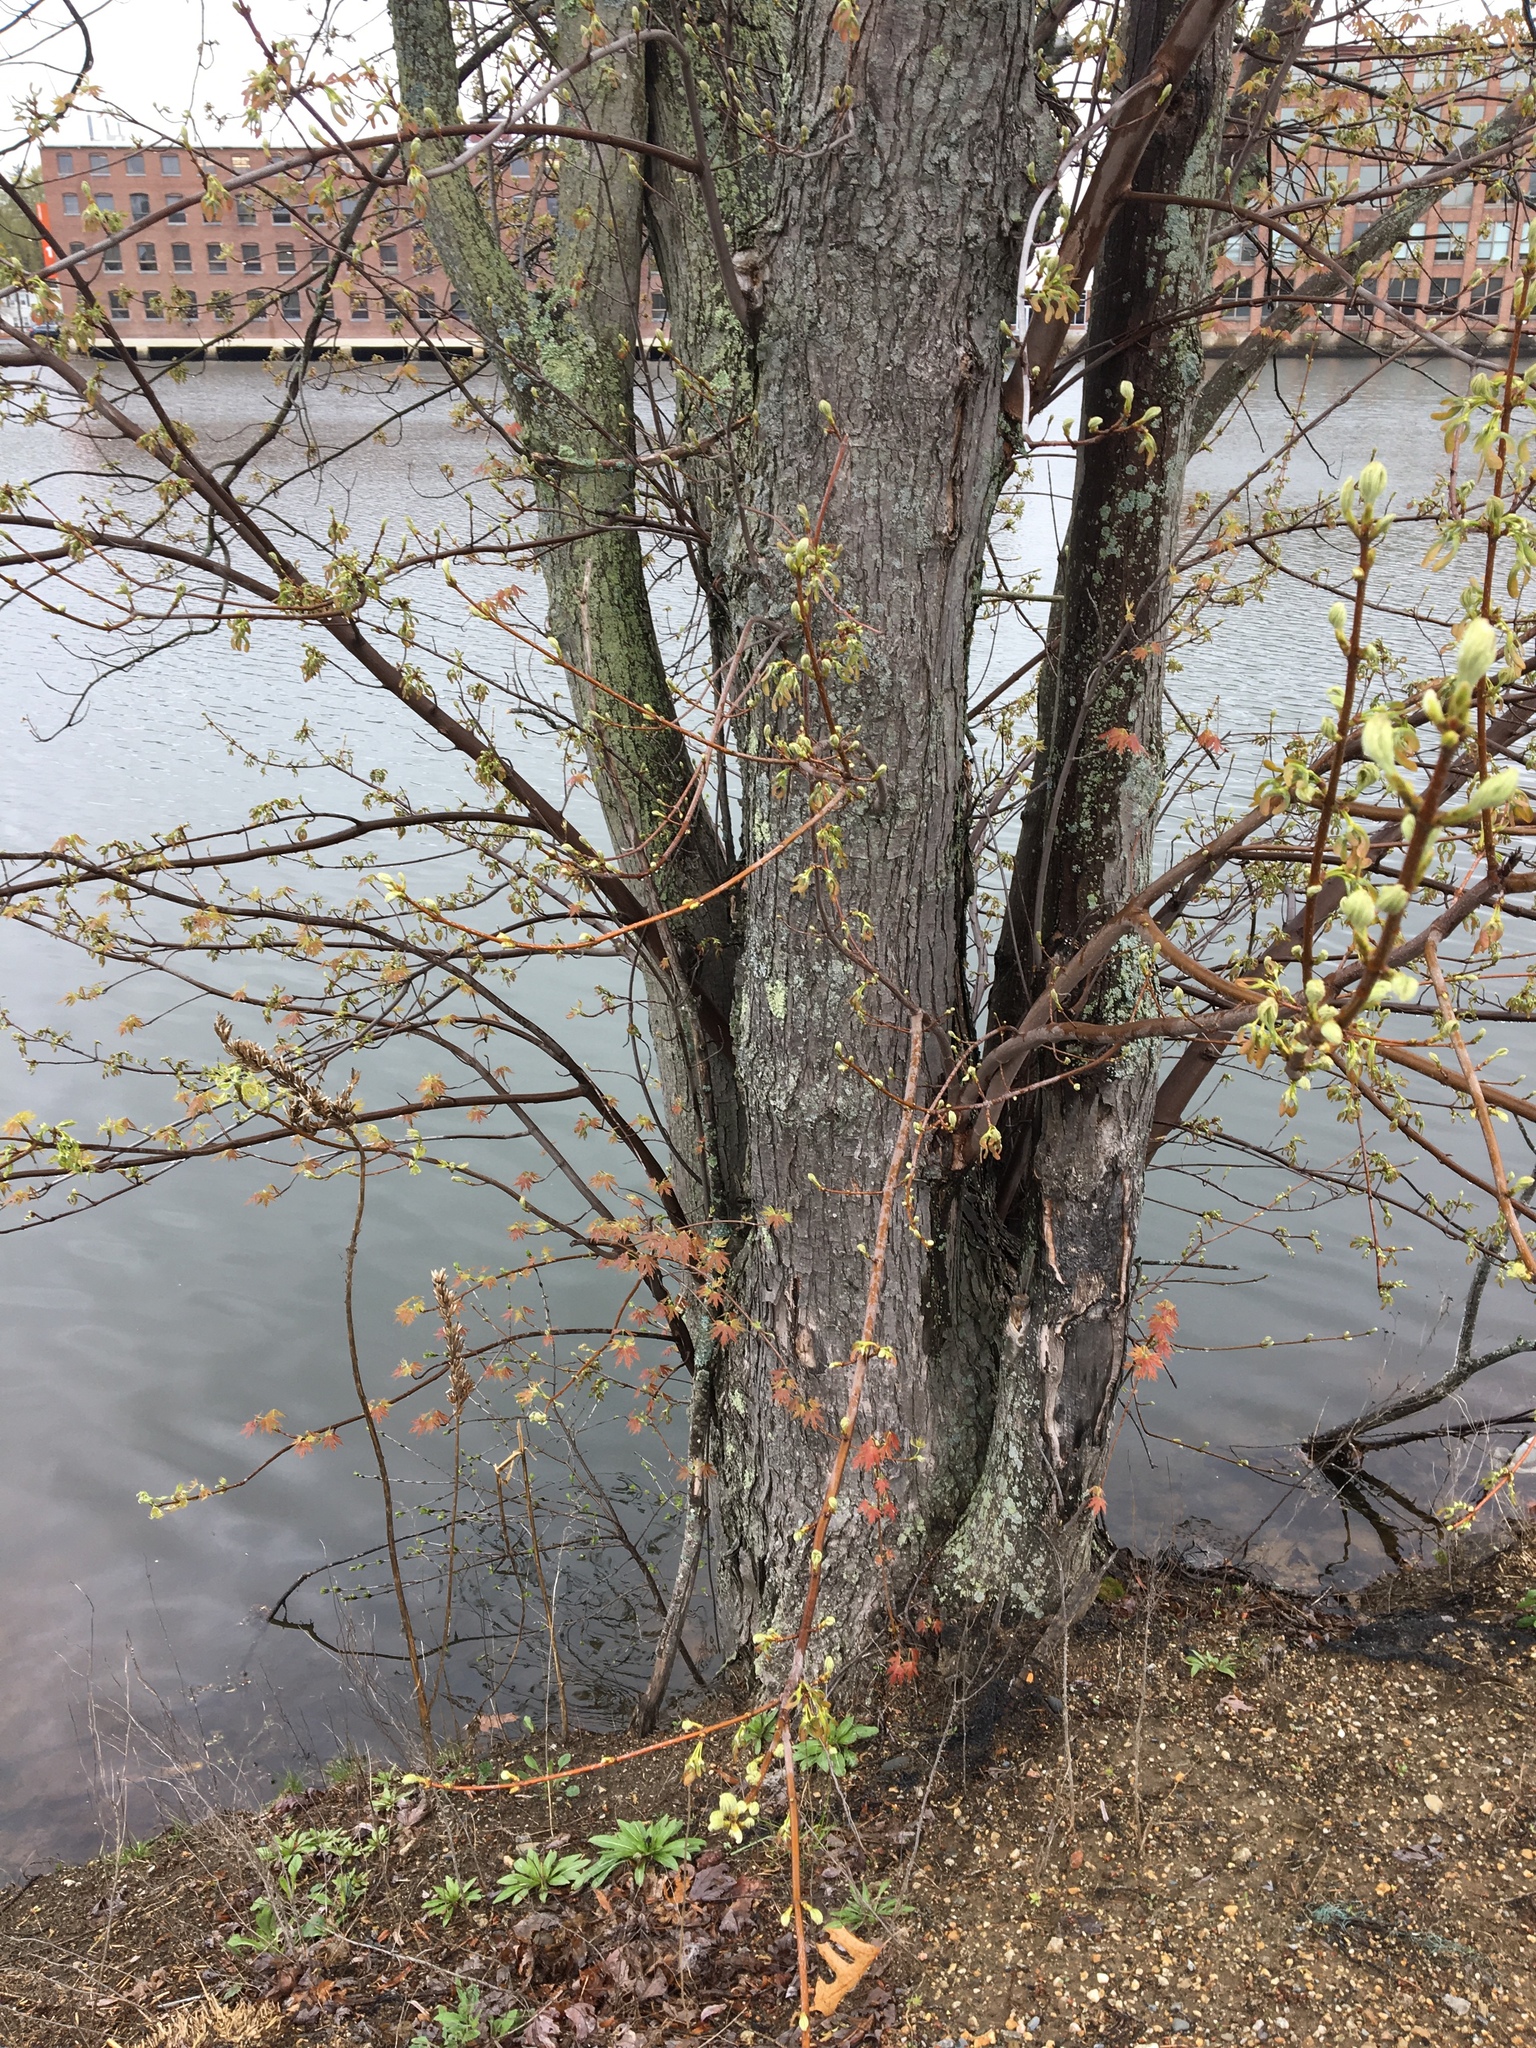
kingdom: Plantae
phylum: Tracheophyta
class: Magnoliopsida
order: Sapindales
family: Sapindaceae
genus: Acer
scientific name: Acer saccharinum
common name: Silver maple
